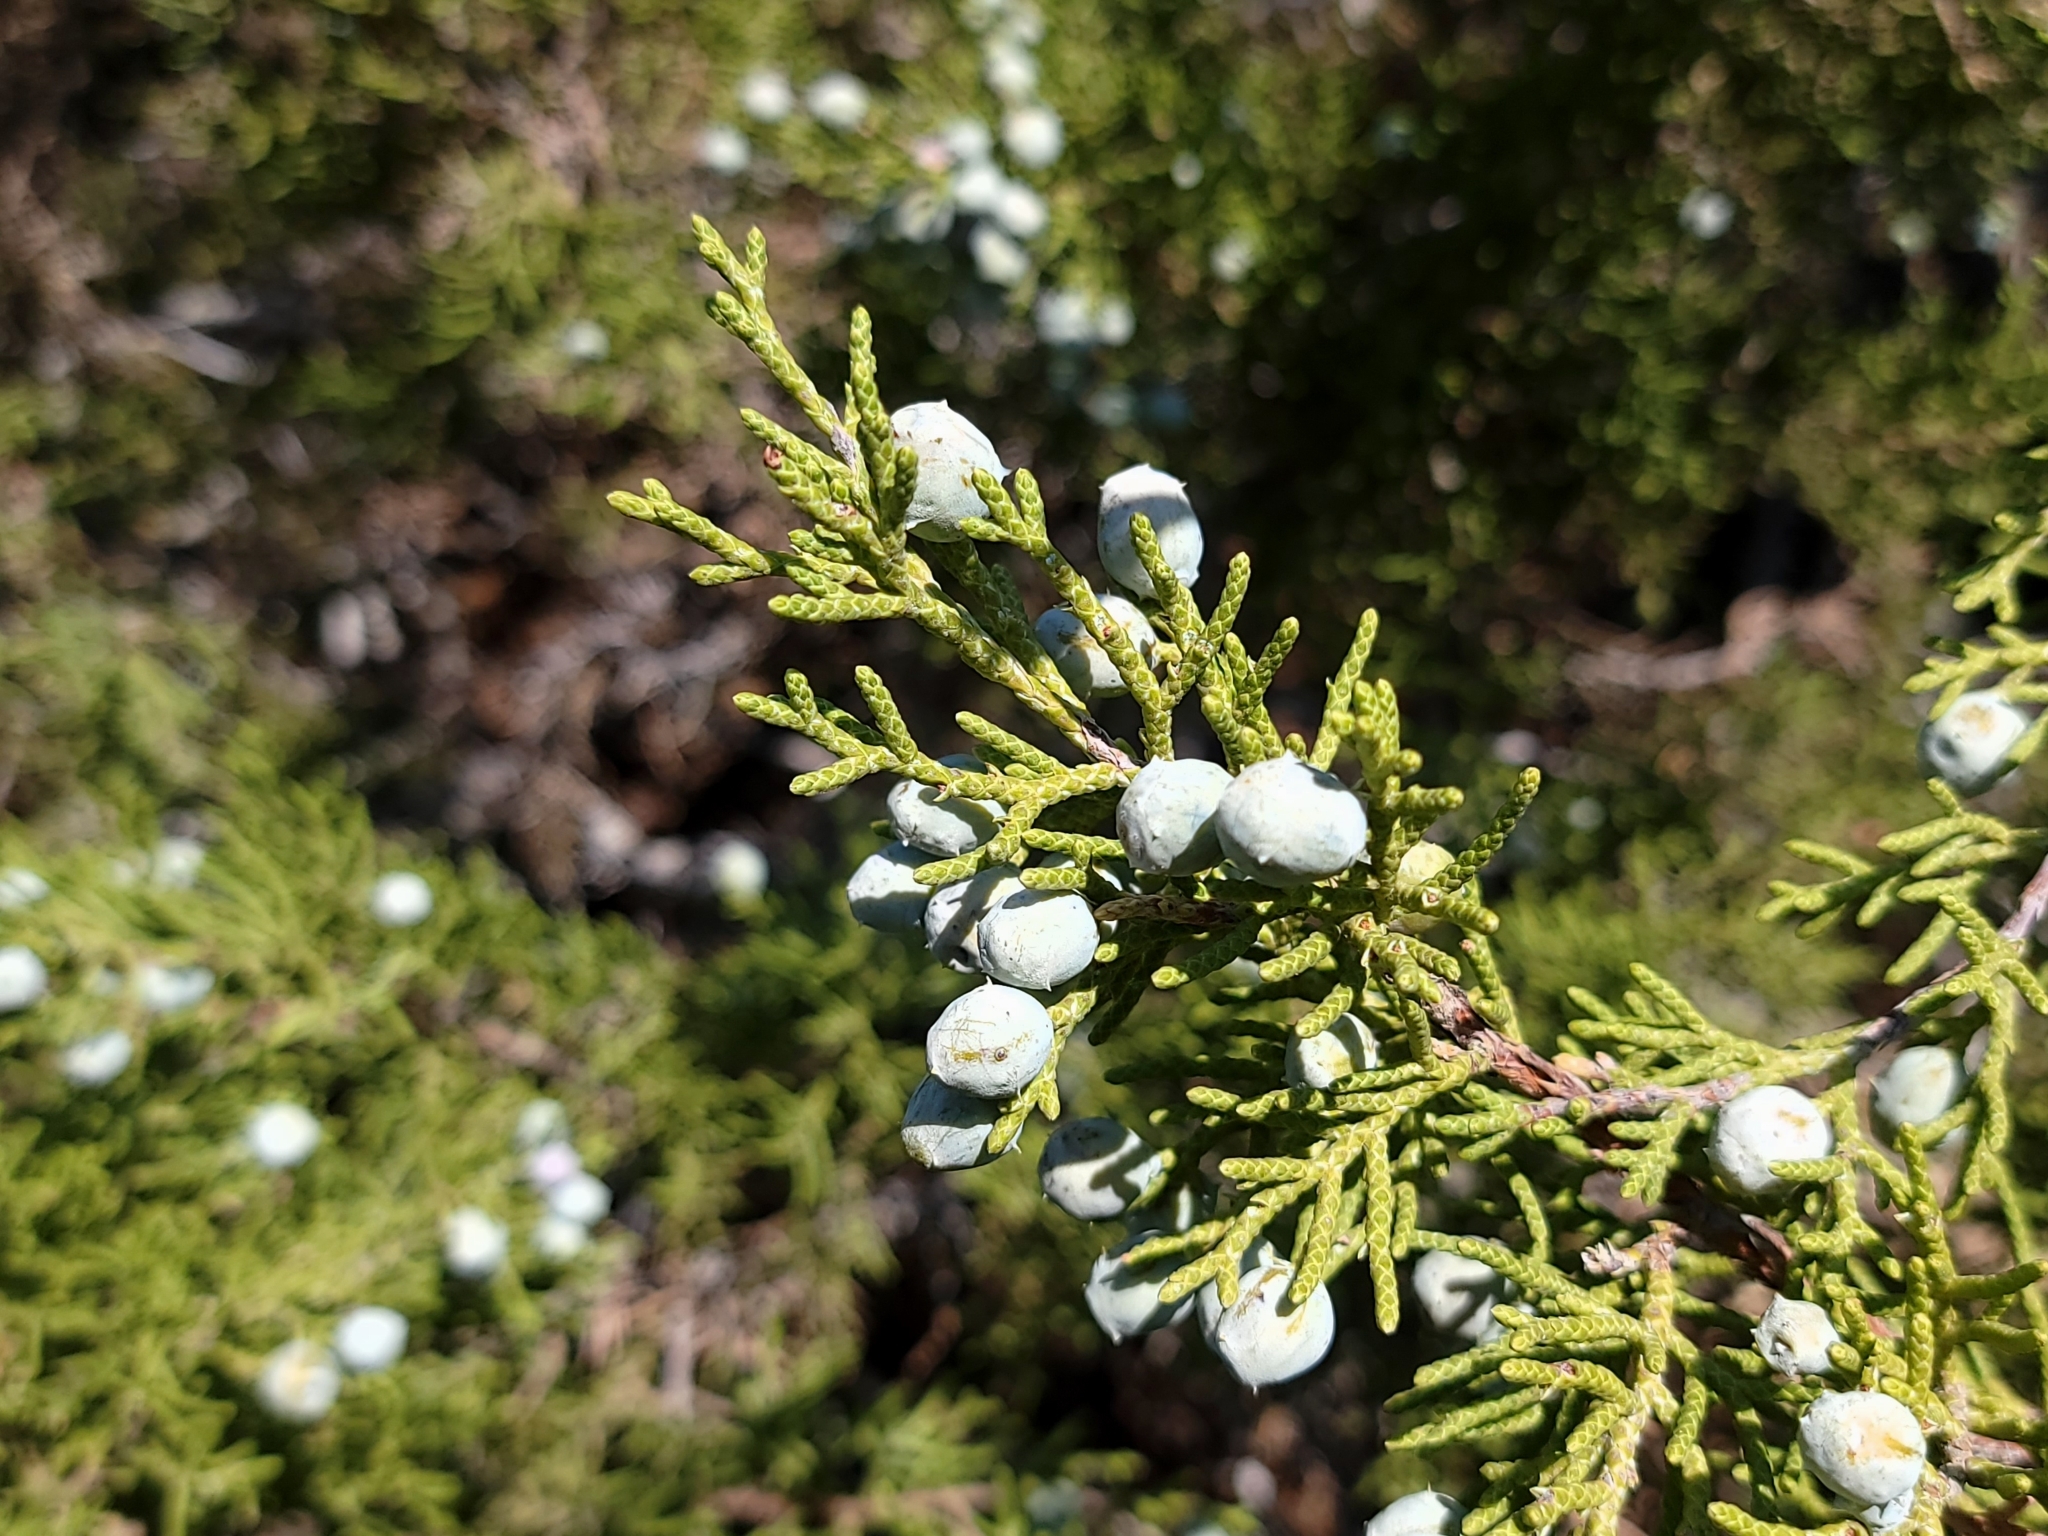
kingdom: Plantae
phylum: Tracheophyta
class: Pinopsida
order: Pinales
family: Cupressaceae
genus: Juniperus
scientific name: Juniperus californica
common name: California juniper
